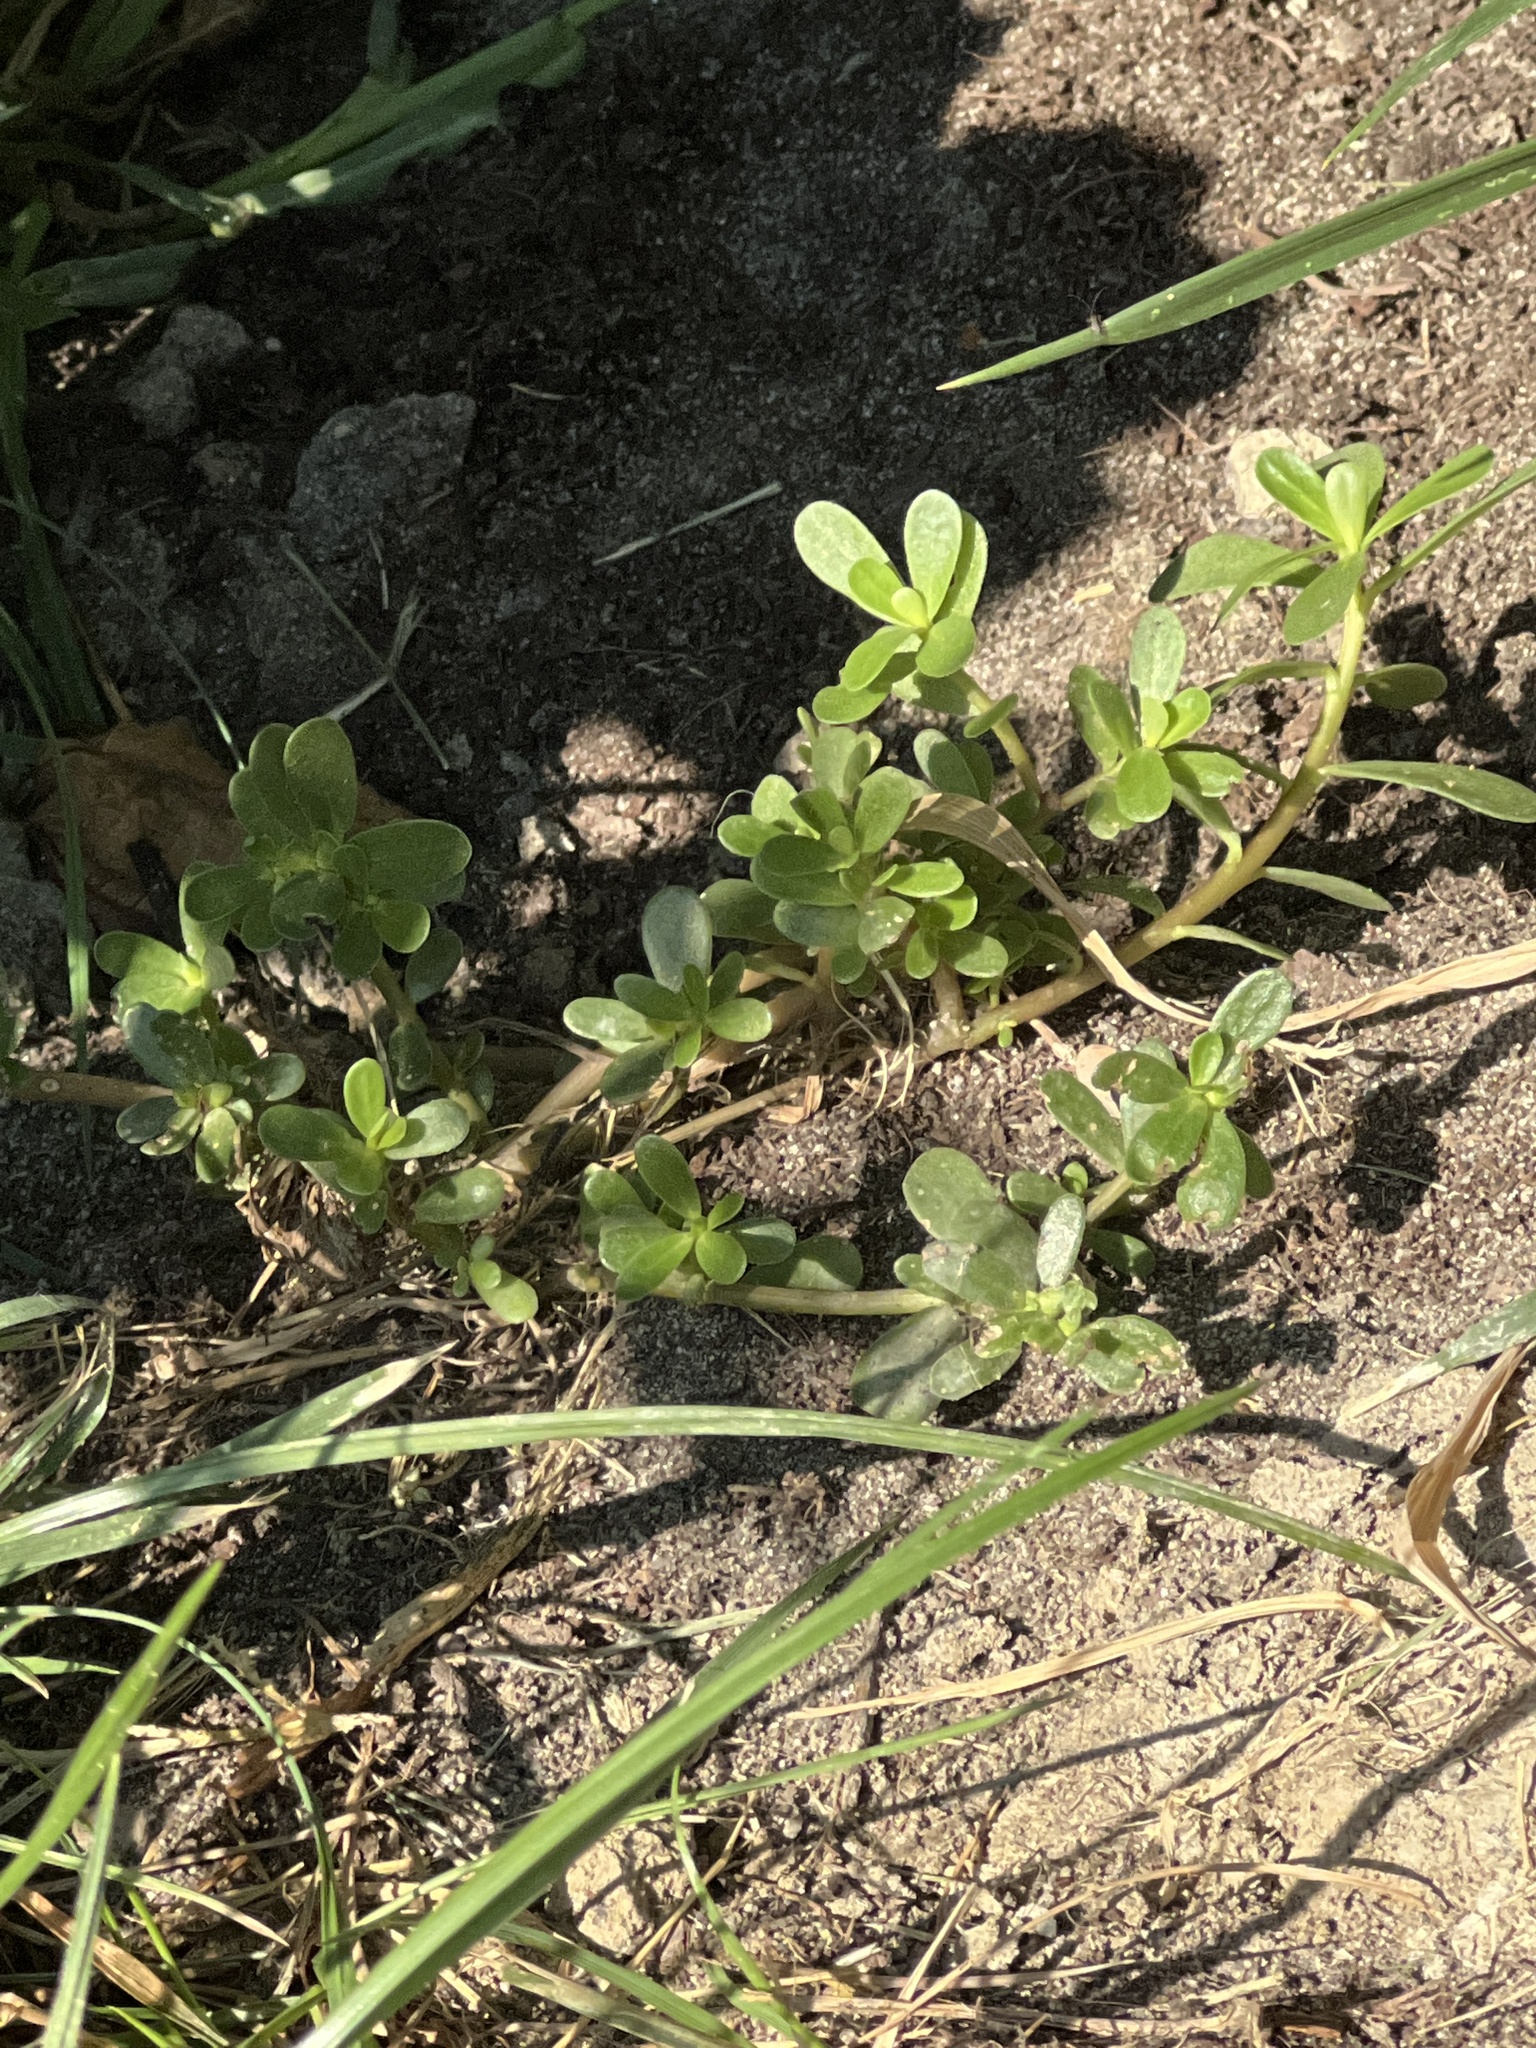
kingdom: Plantae
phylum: Tracheophyta
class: Magnoliopsida
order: Caryophyllales
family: Portulacaceae
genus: Portulaca
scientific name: Portulaca oleracea
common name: Common purslane
